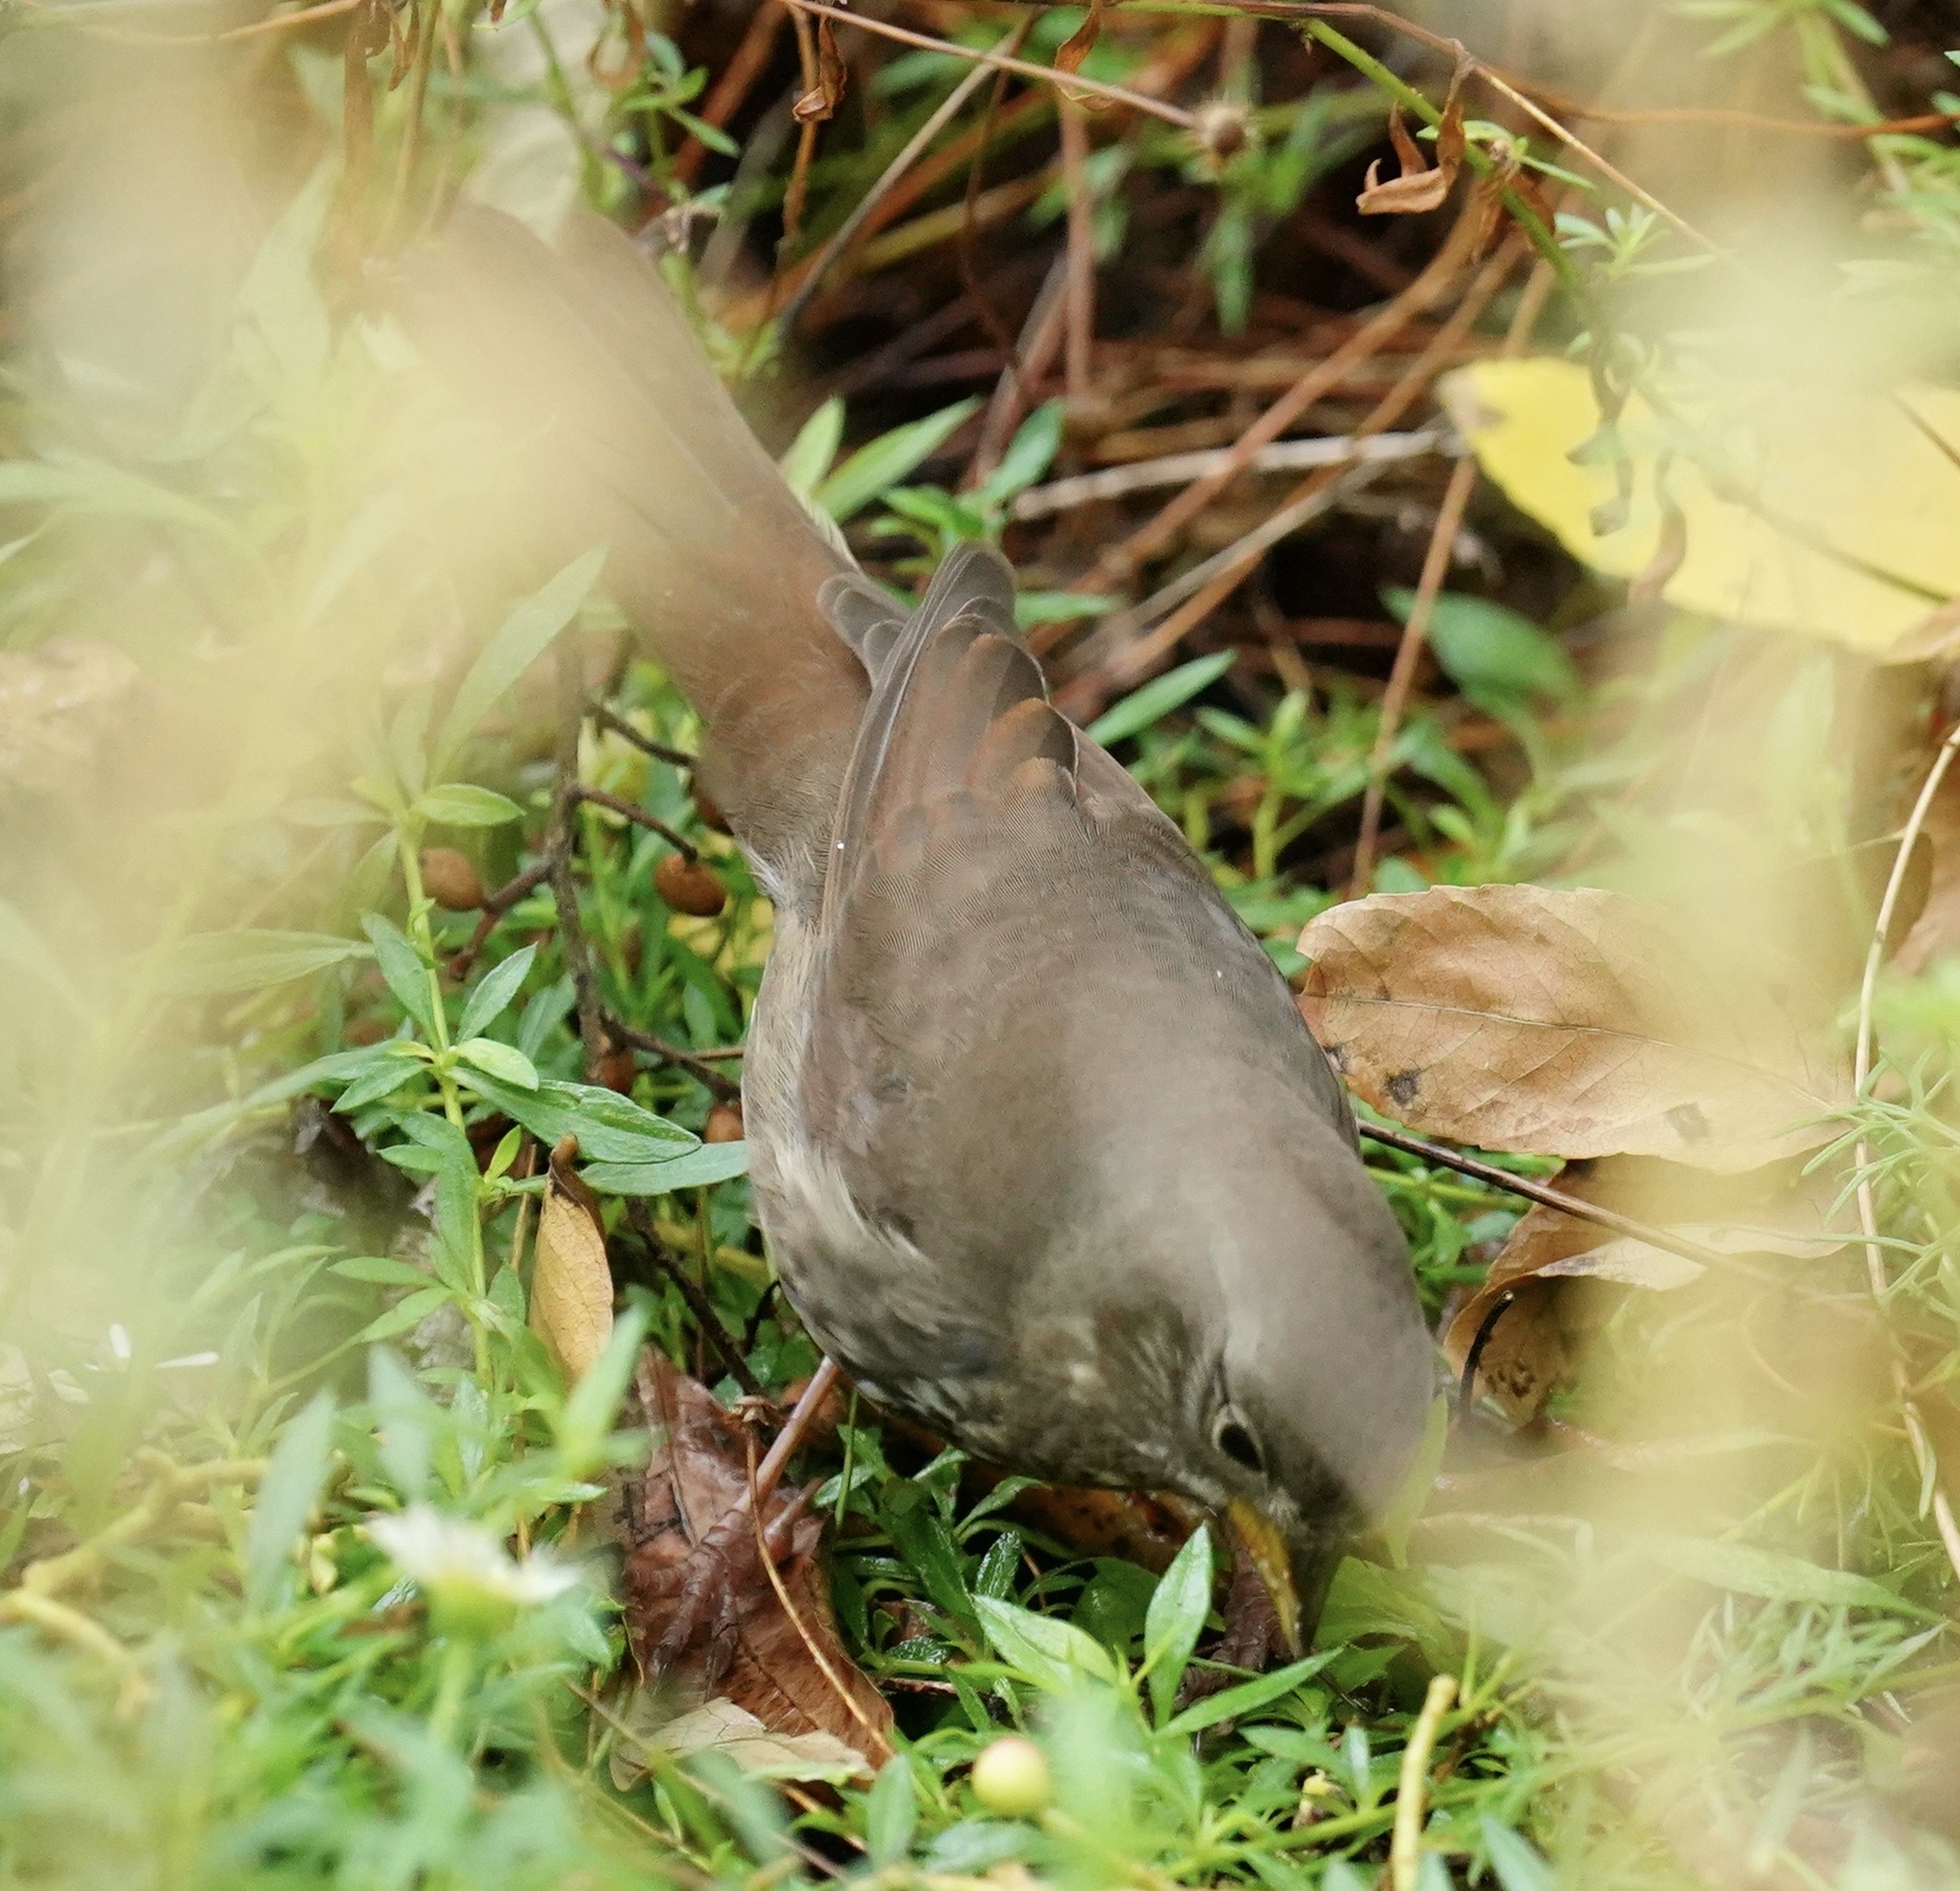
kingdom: Animalia
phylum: Chordata
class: Aves
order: Passeriformes
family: Passerellidae
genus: Passerella
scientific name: Passerella iliaca
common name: Fox sparrow
